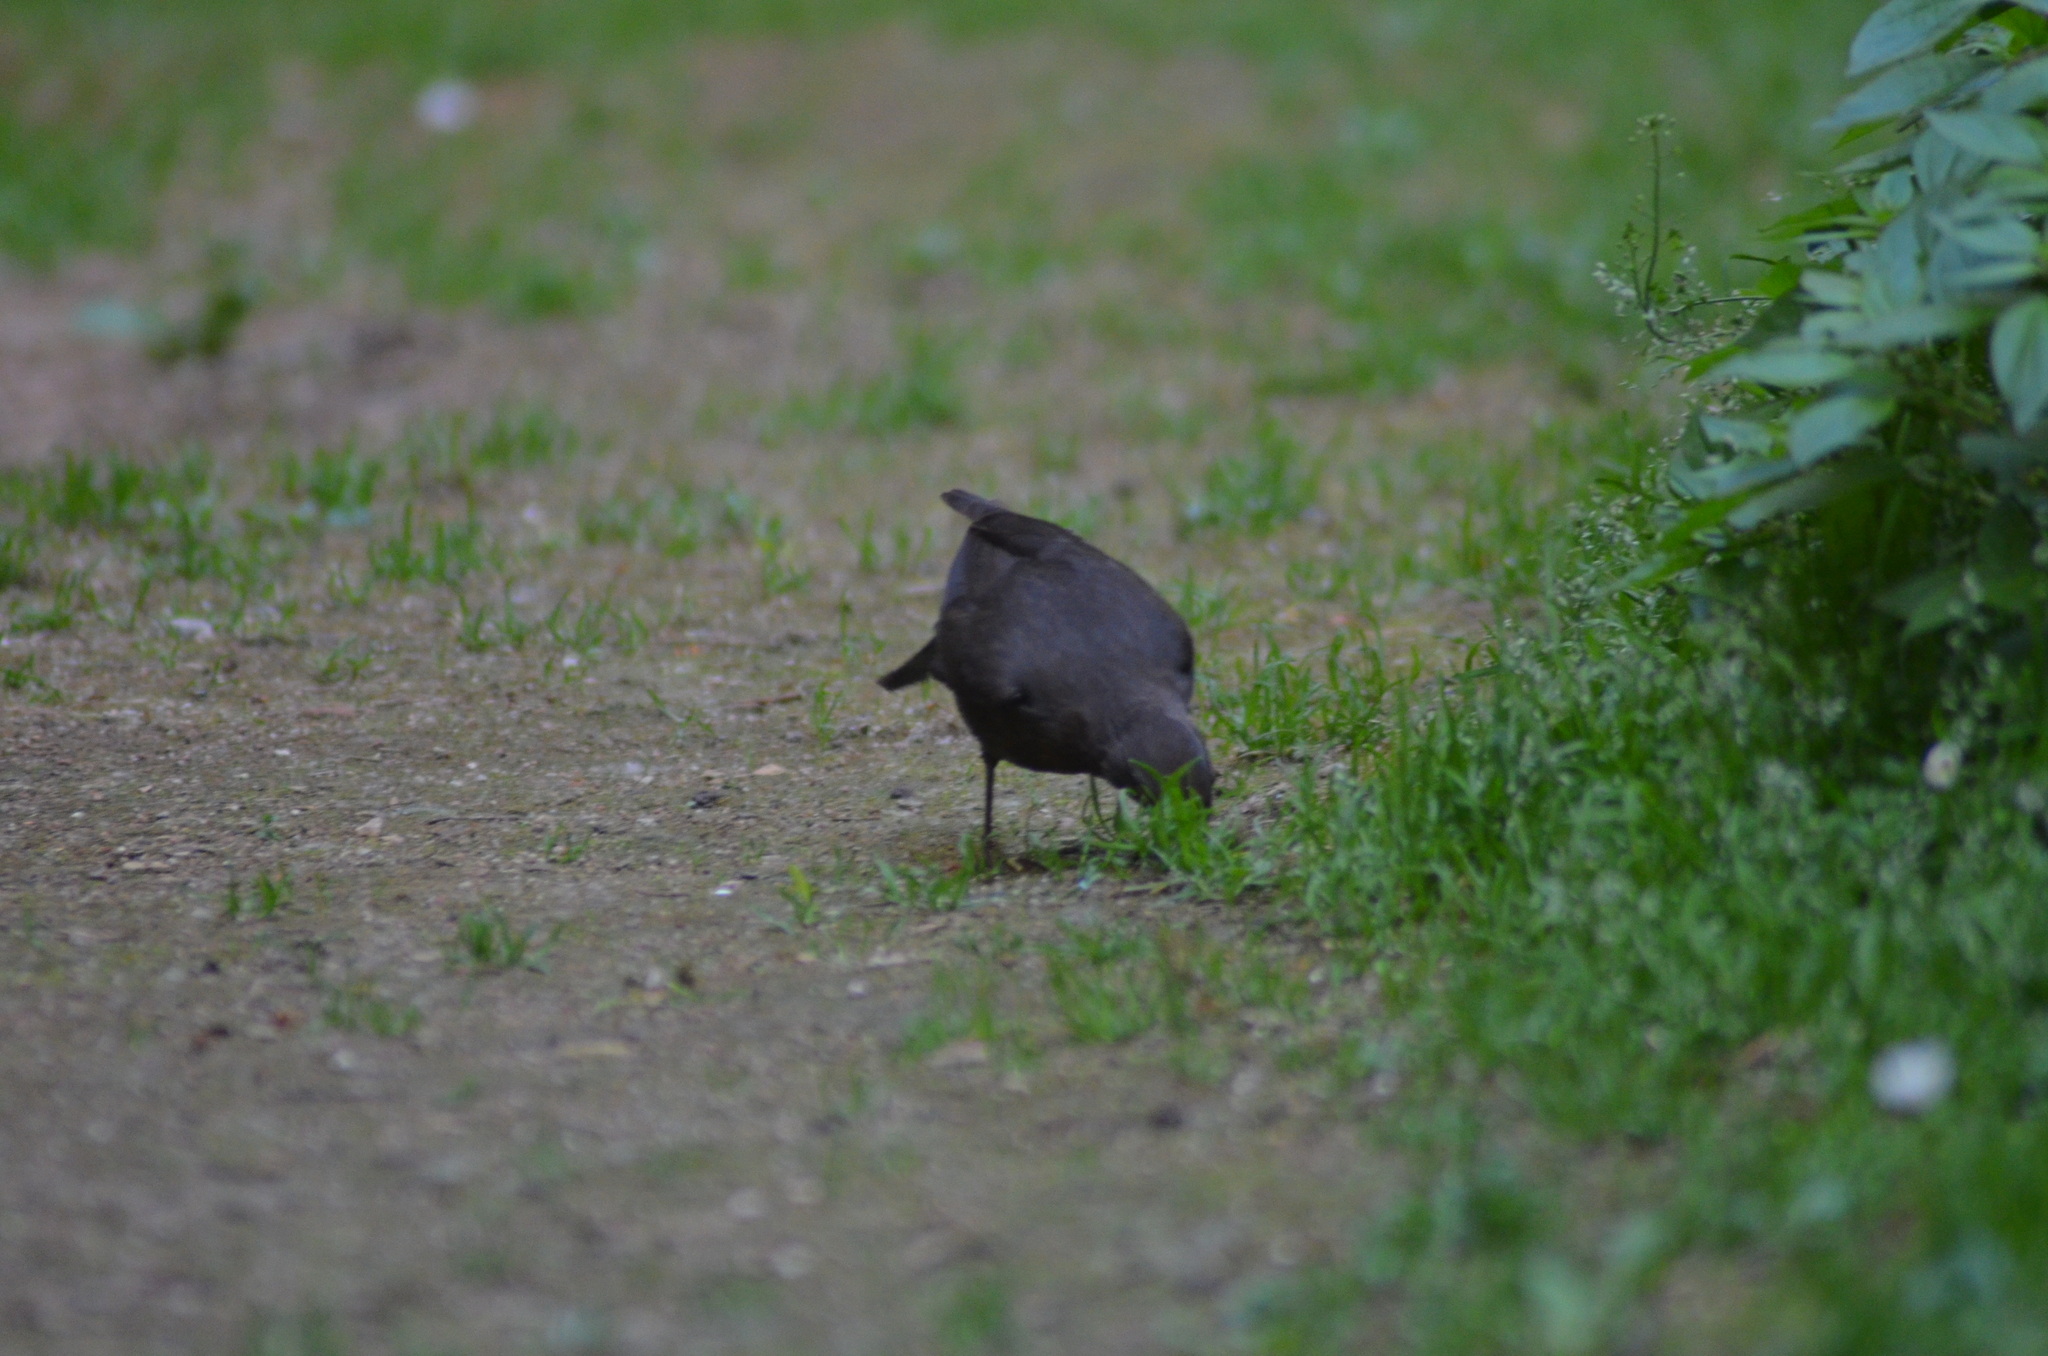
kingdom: Animalia
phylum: Chordata
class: Aves
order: Passeriformes
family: Turdidae
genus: Turdus
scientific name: Turdus merula
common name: Common blackbird
